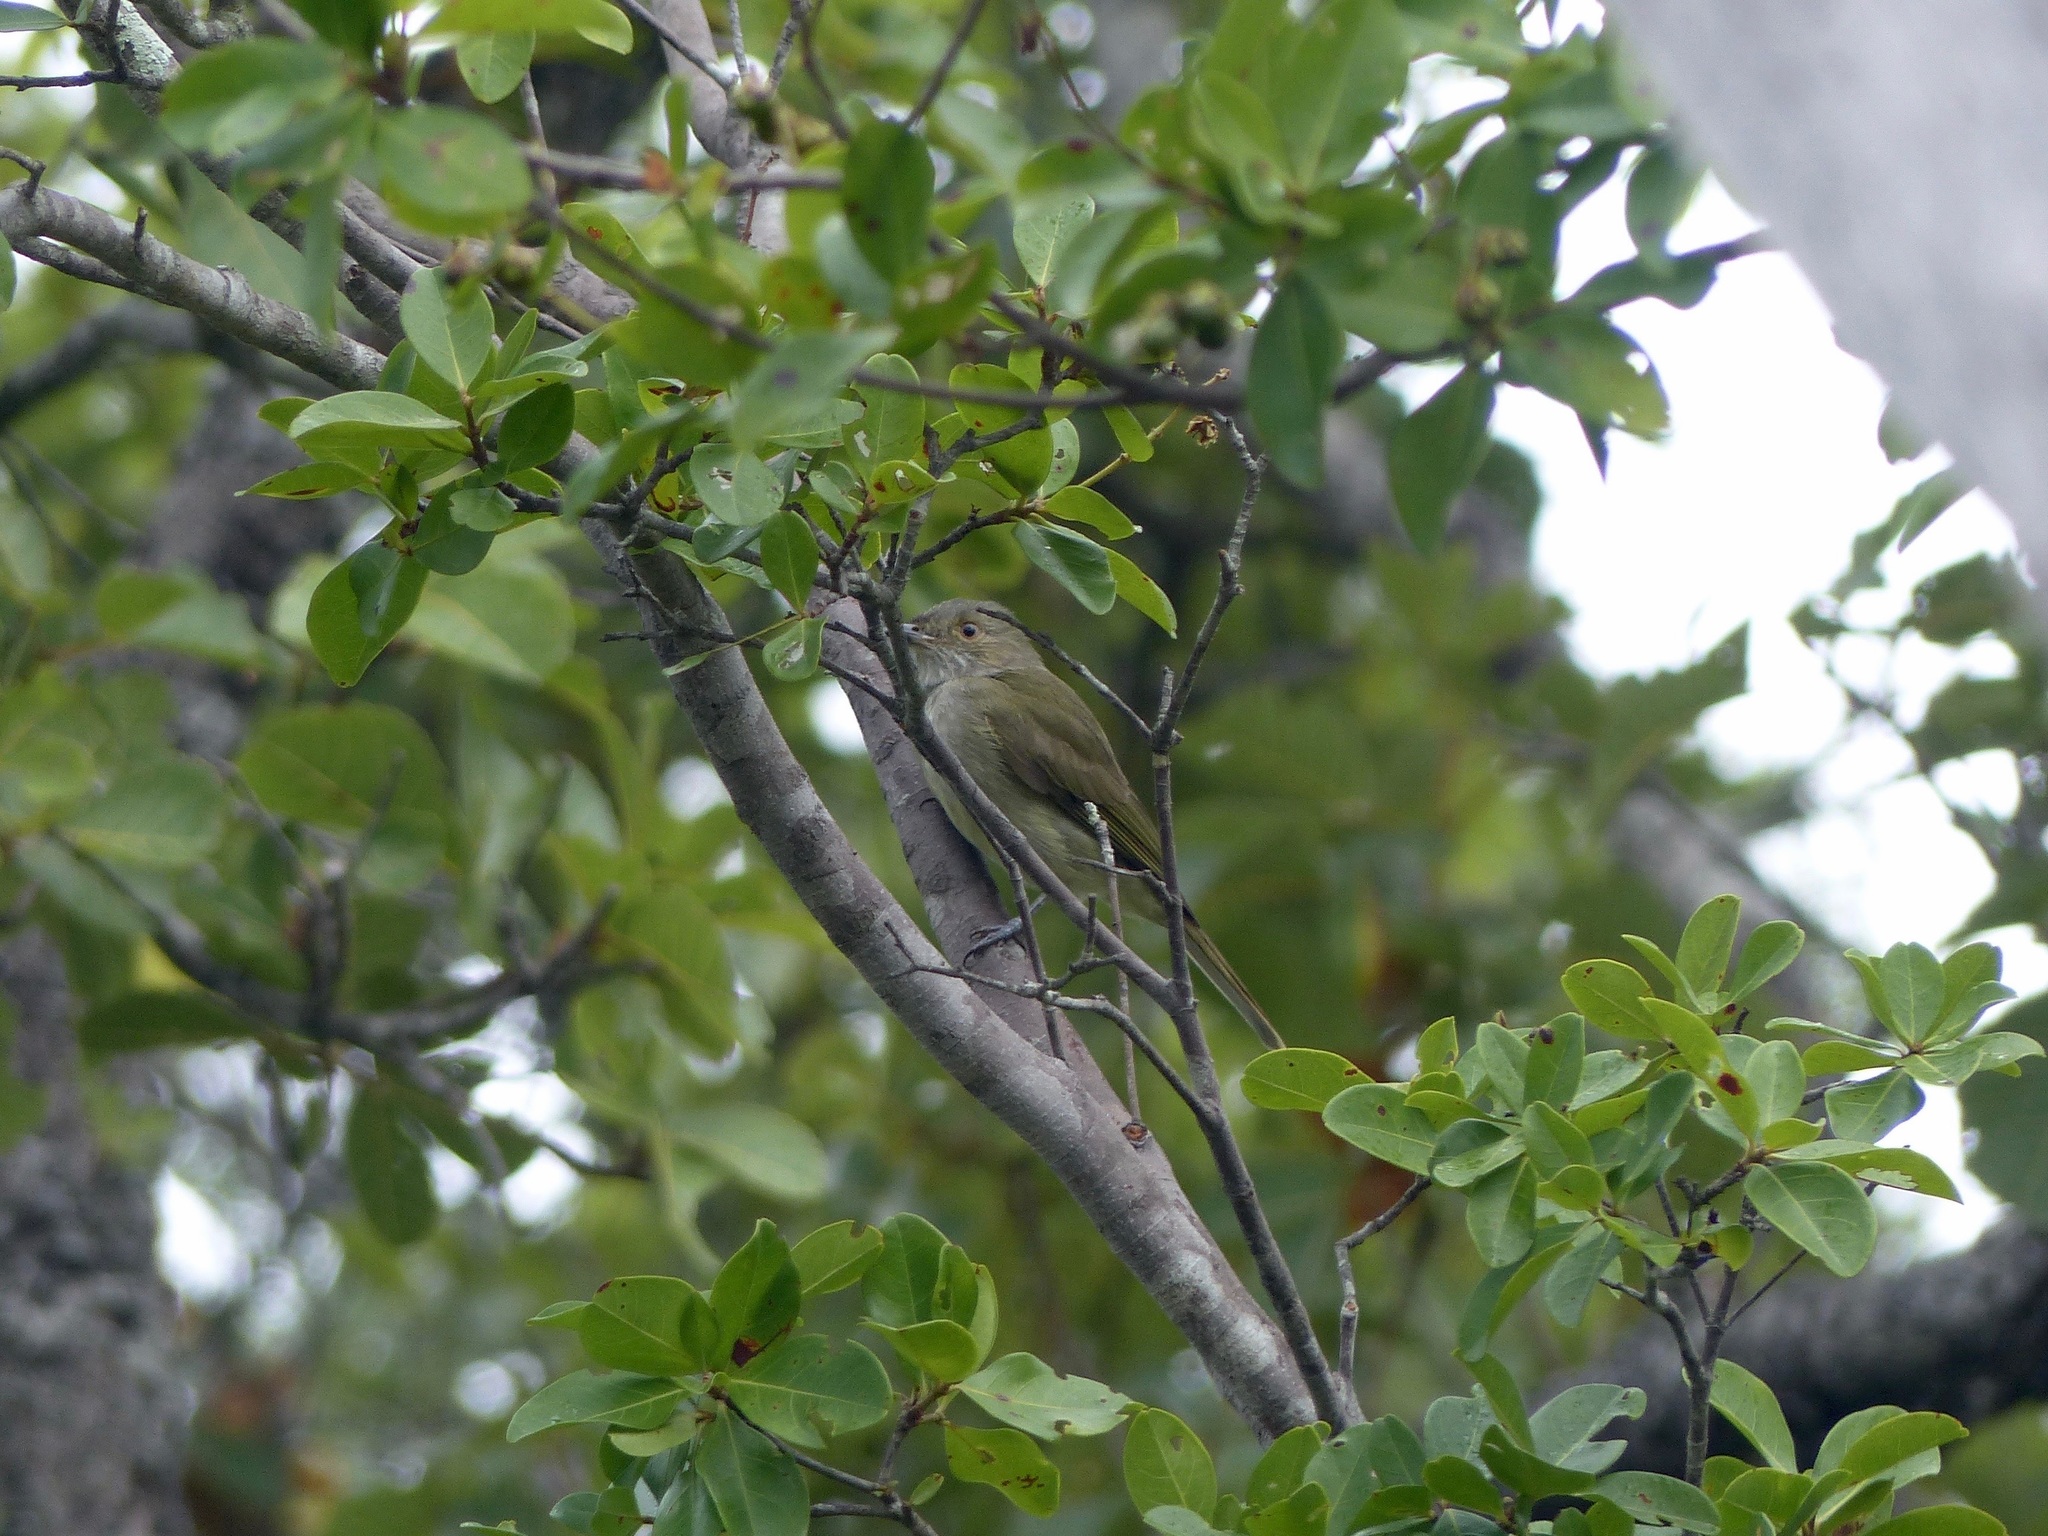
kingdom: Animalia
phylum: Chordata
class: Aves
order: Passeriformes
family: Pipridae
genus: Neopelma
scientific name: Neopelma pallescens
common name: Pale-bellied tyrant-manakin
